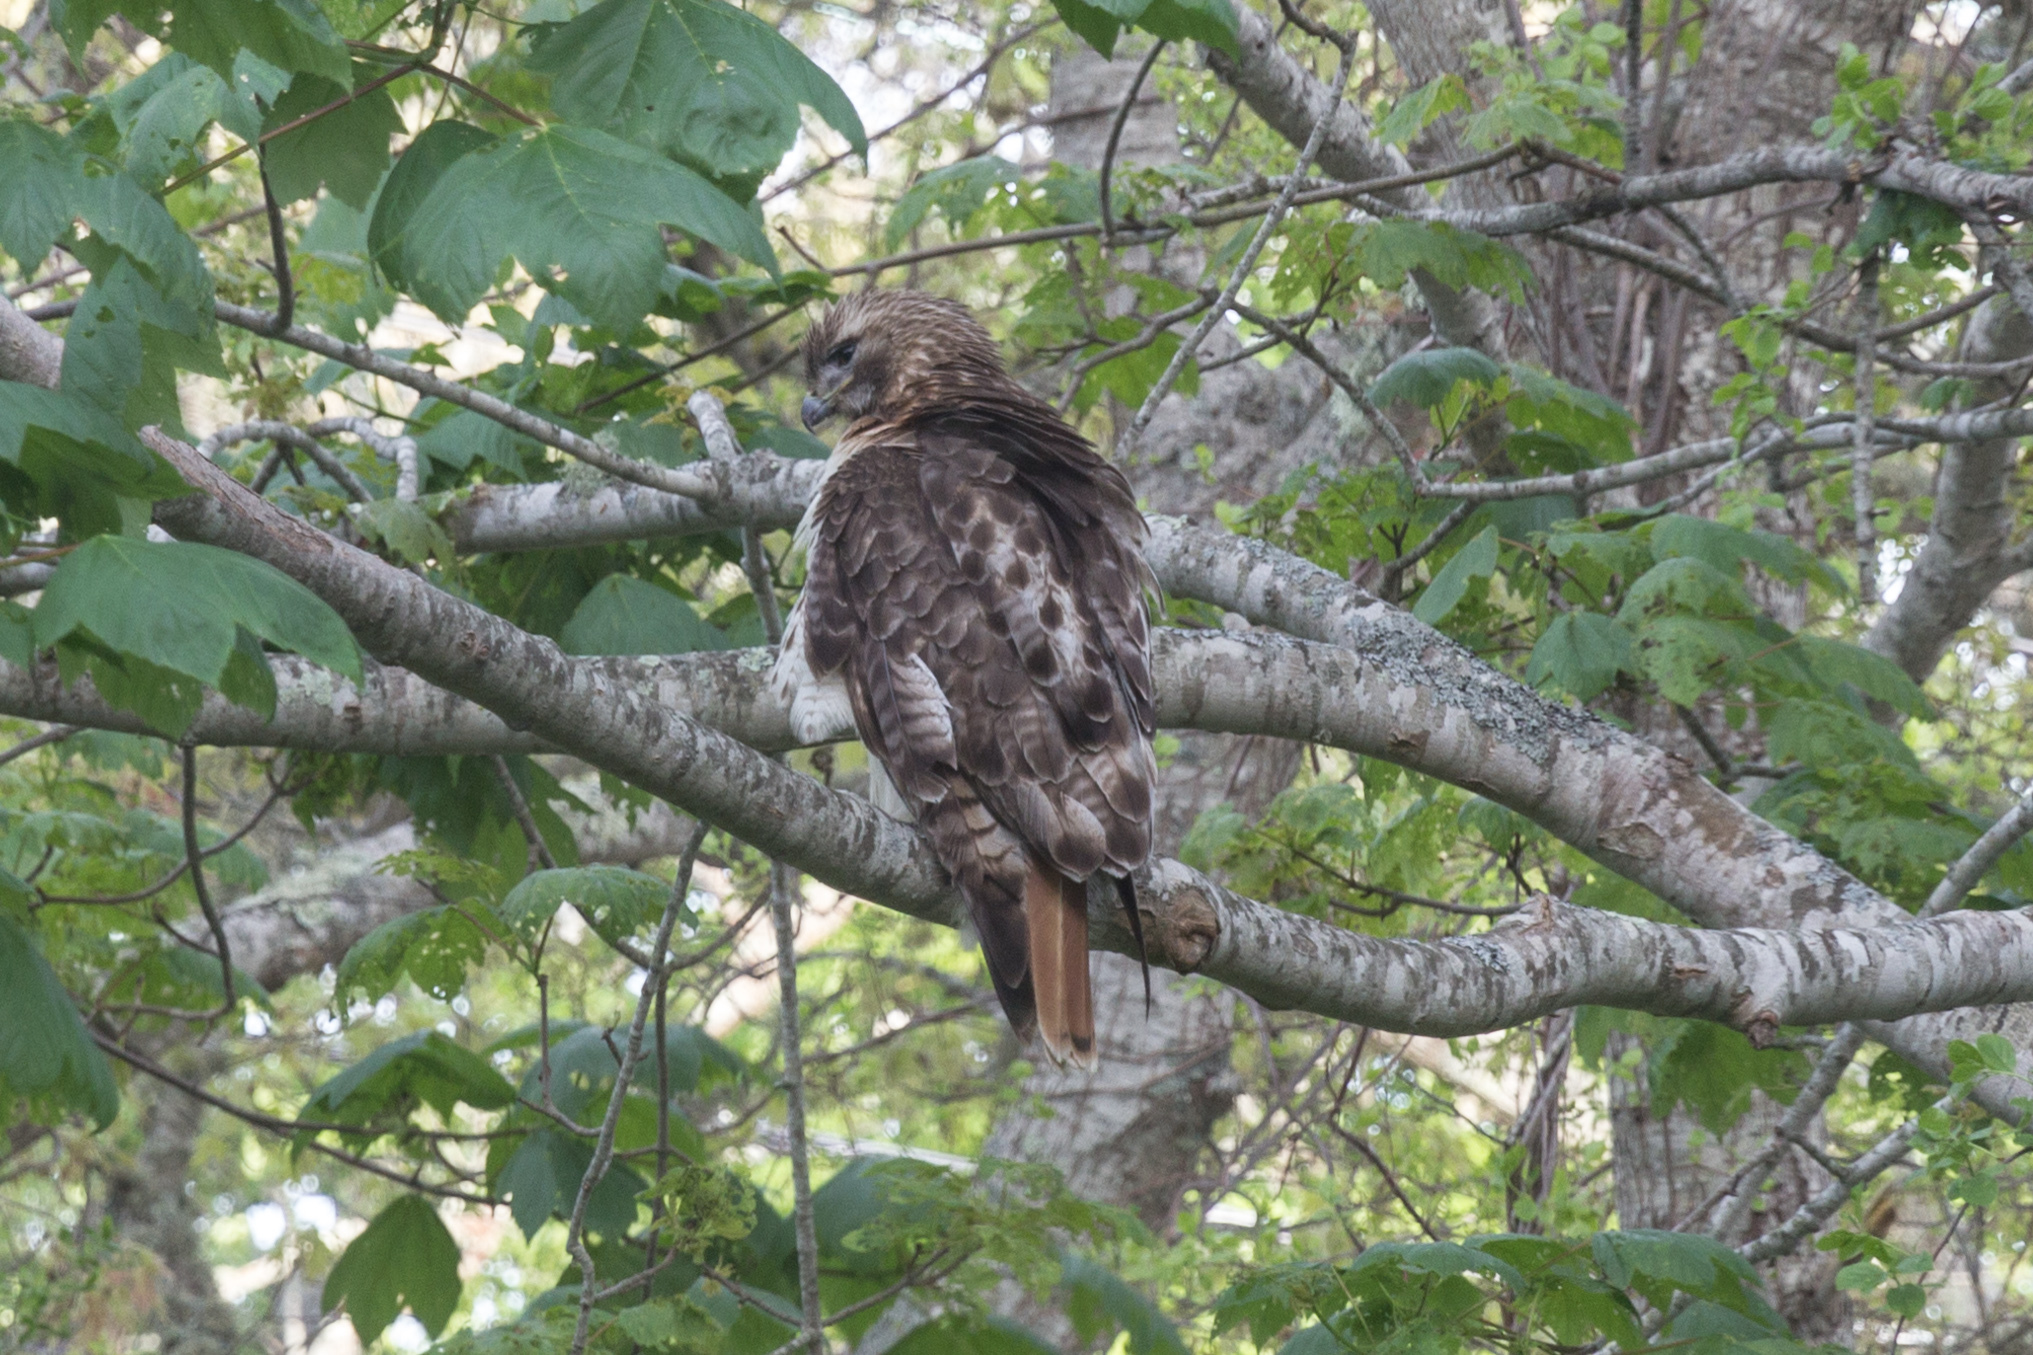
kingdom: Animalia
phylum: Chordata
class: Aves
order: Accipitriformes
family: Accipitridae
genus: Buteo
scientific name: Buteo jamaicensis
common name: Red-tailed hawk
